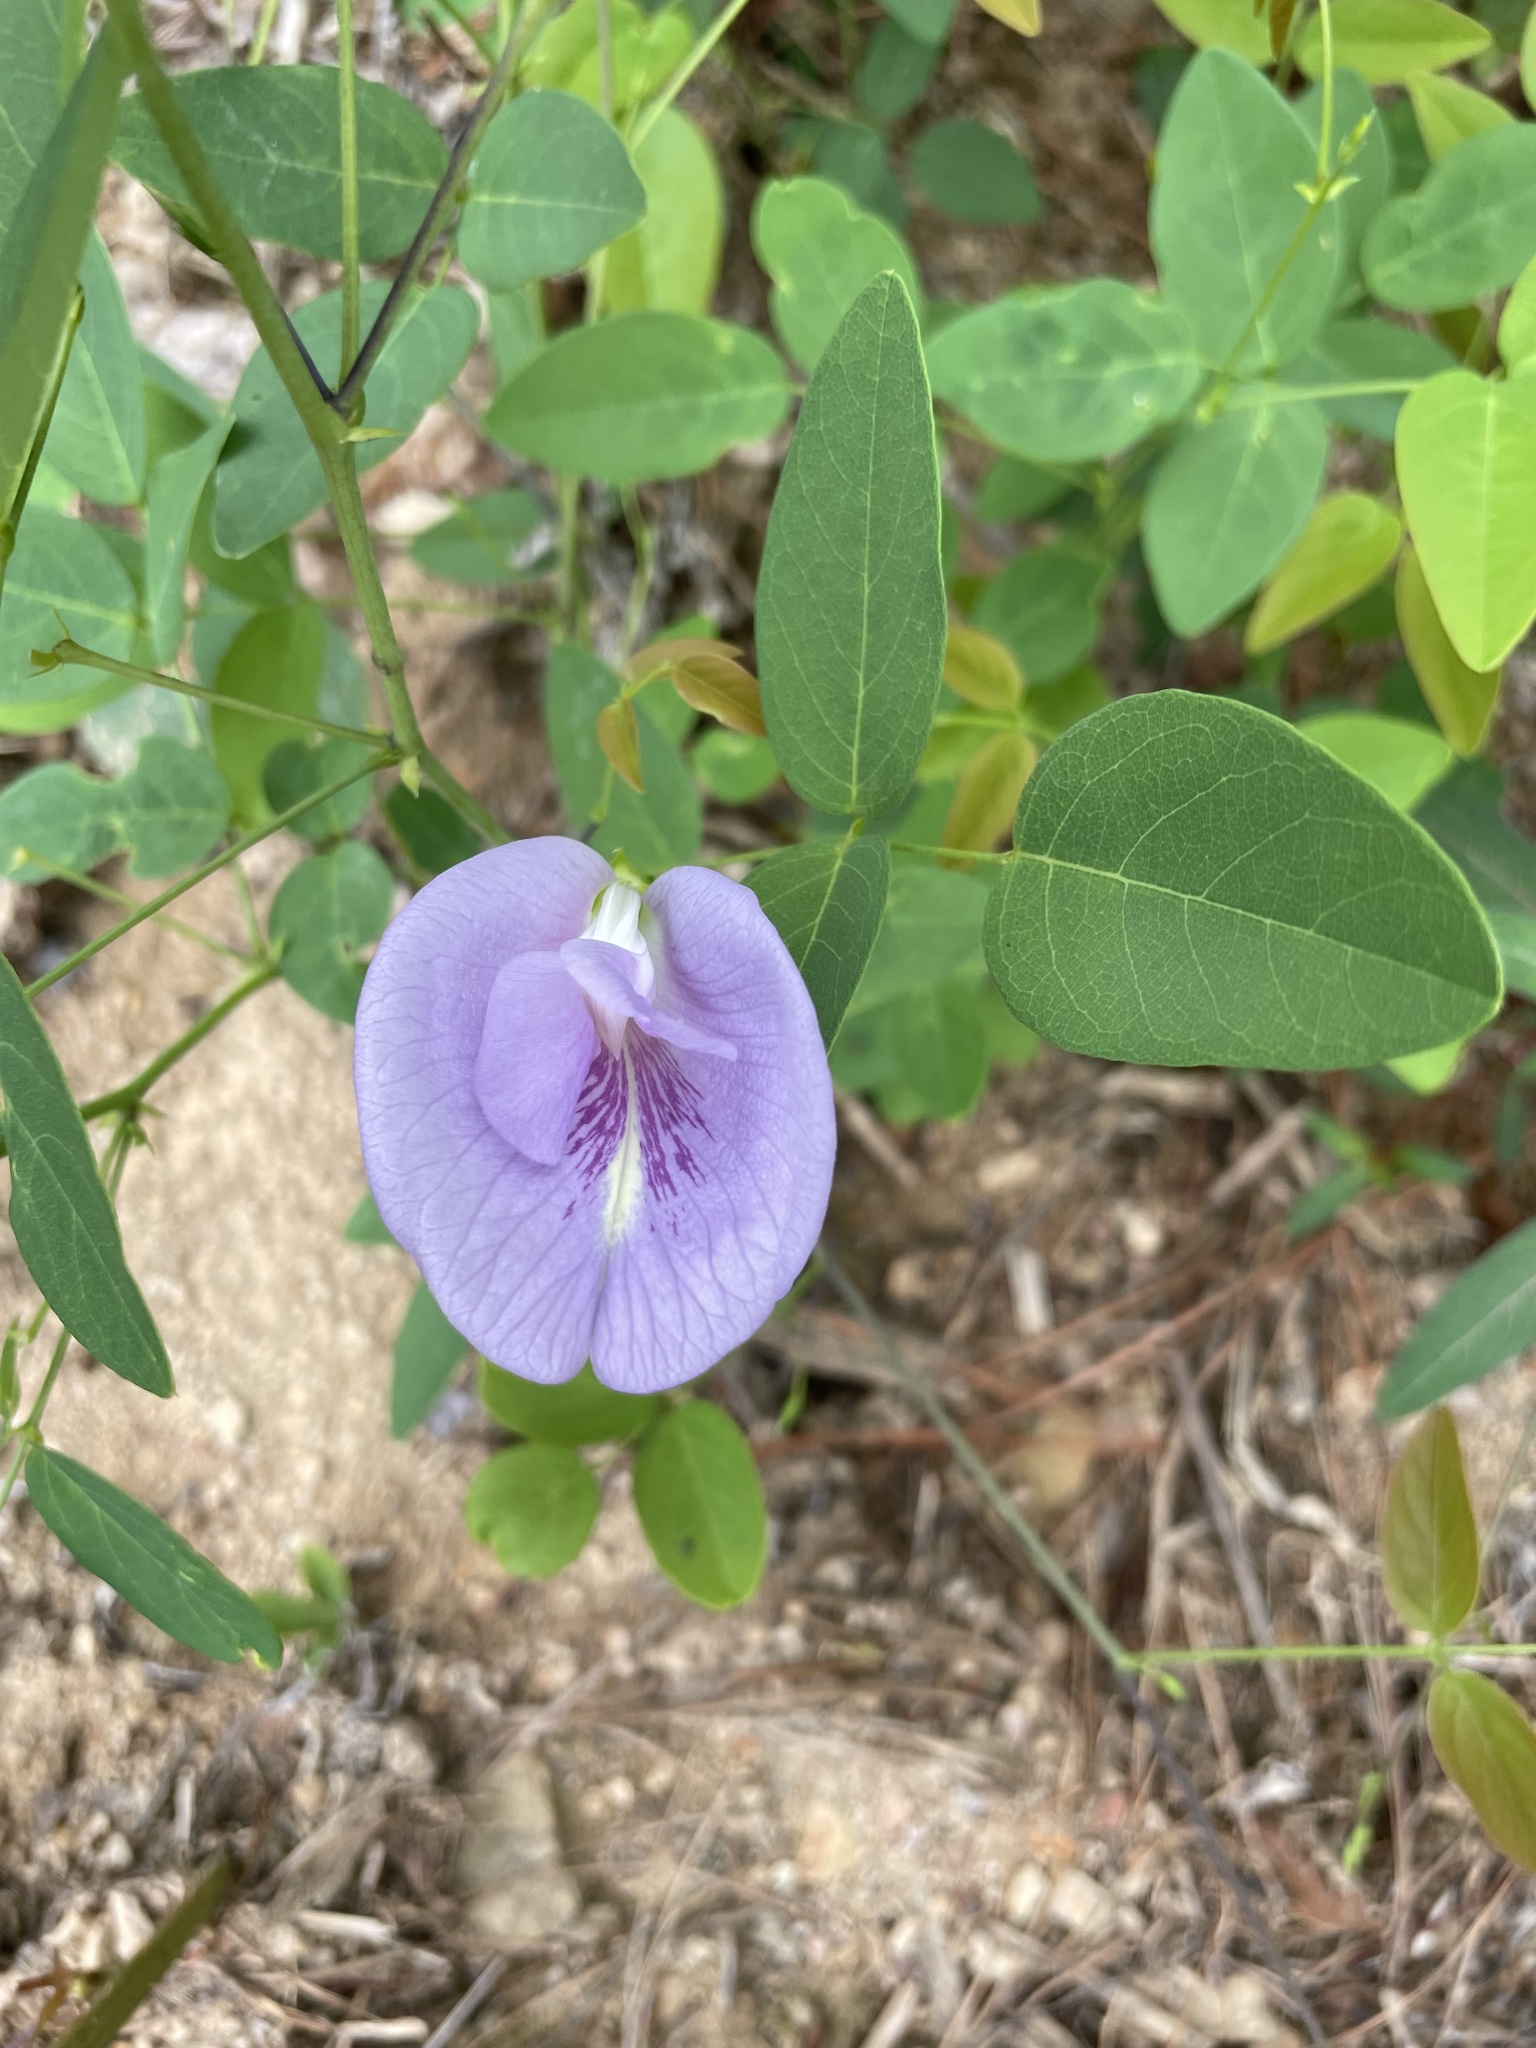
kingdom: Plantae
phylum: Tracheophyta
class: Magnoliopsida
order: Fabales
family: Fabaceae
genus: Clitoria
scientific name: Clitoria mariana
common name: Butterfly-pea
